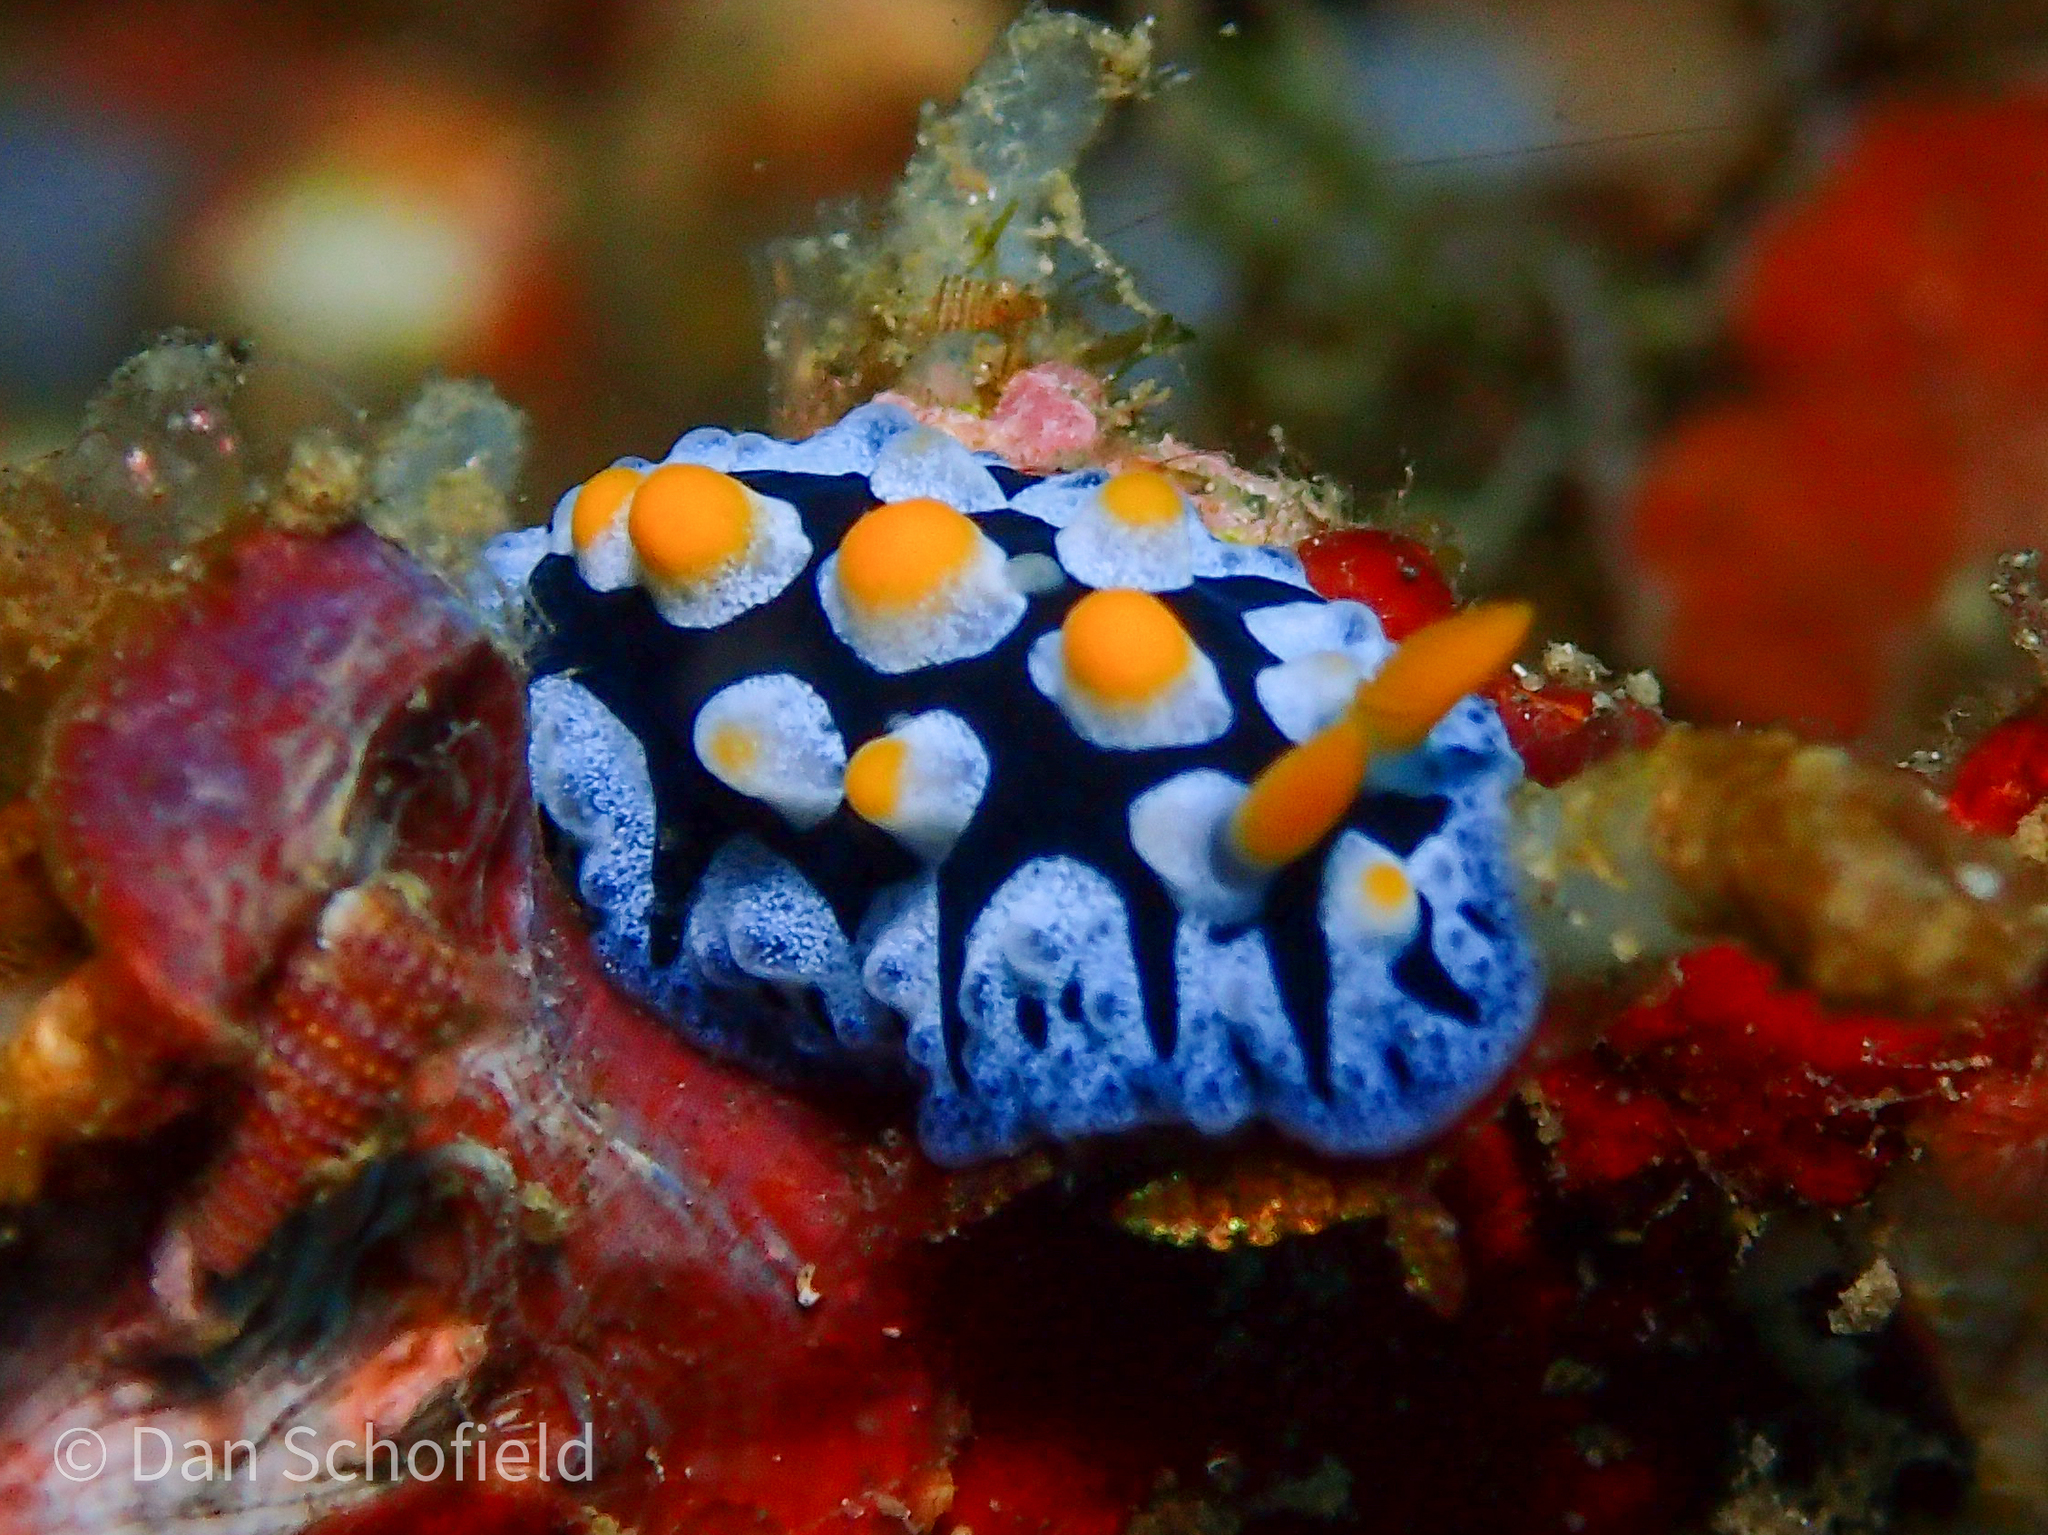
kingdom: Animalia
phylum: Mollusca
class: Gastropoda
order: Nudibranchia
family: Phyllidiidae
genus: Phyllidia
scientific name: Phyllidia picta
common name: Black-rayed phyllidia
